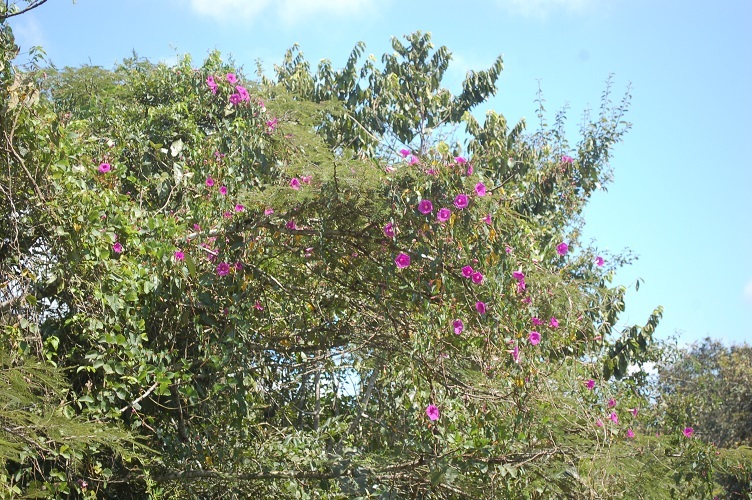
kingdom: Plantae
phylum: Tracheophyta
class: Magnoliopsida
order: Solanales
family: Convolvulaceae
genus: Ipomoea
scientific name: Ipomoea bernoulliana
